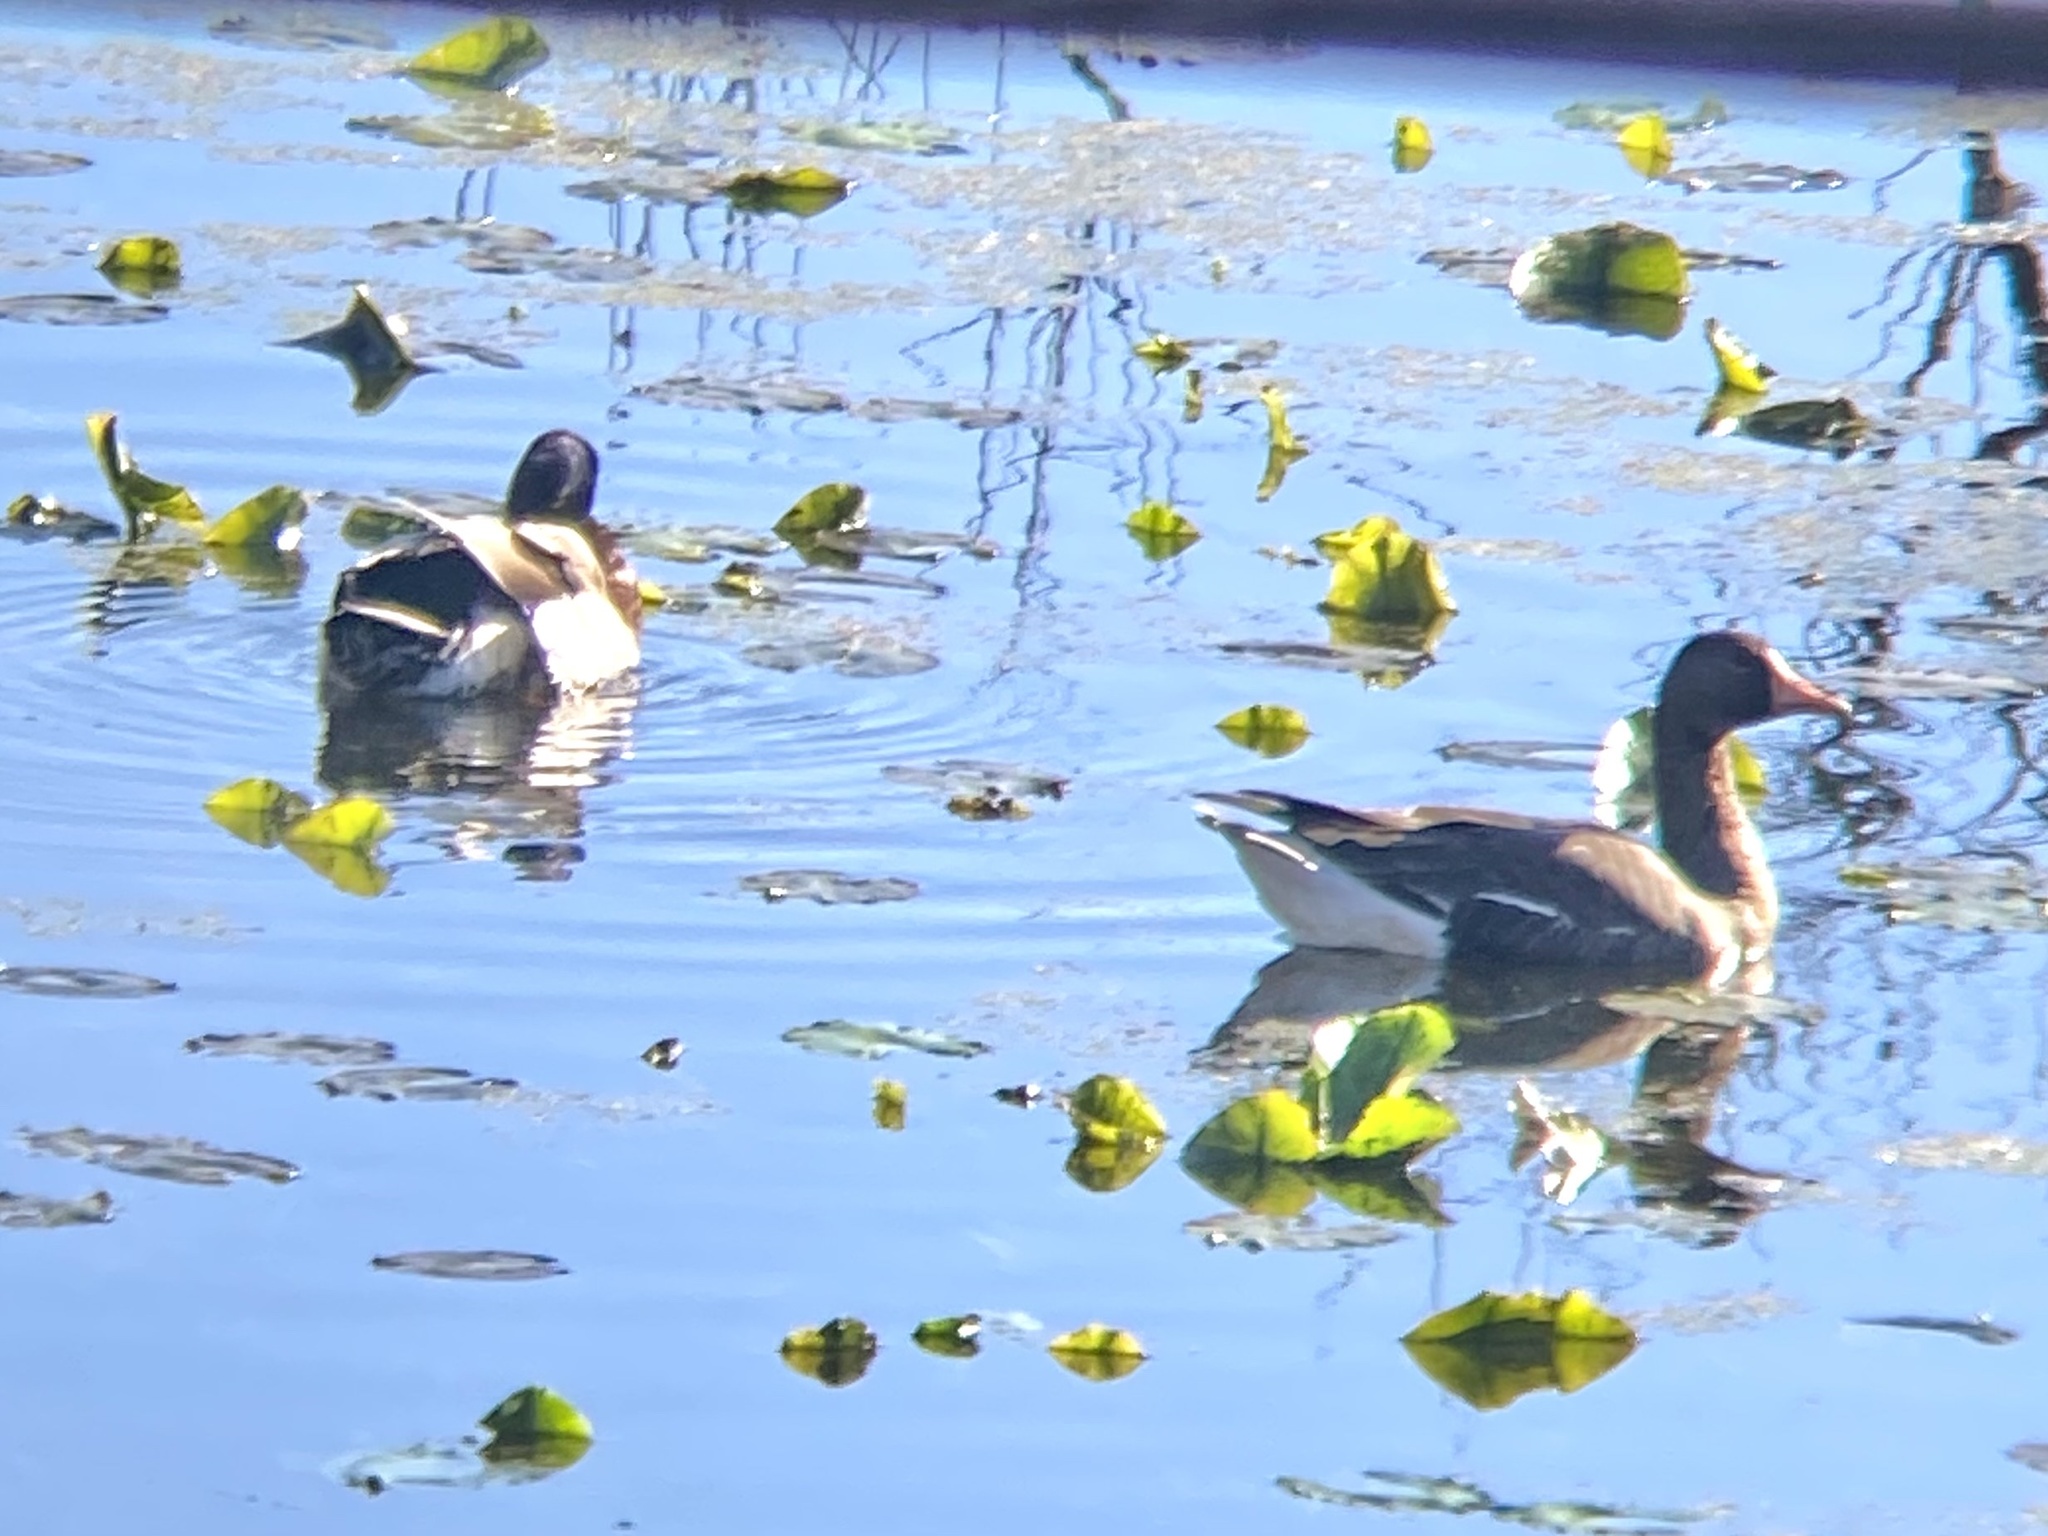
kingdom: Animalia
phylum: Chordata
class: Aves
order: Anseriformes
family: Anatidae
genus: Anas
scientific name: Anas platyrhynchos
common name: Mallard
